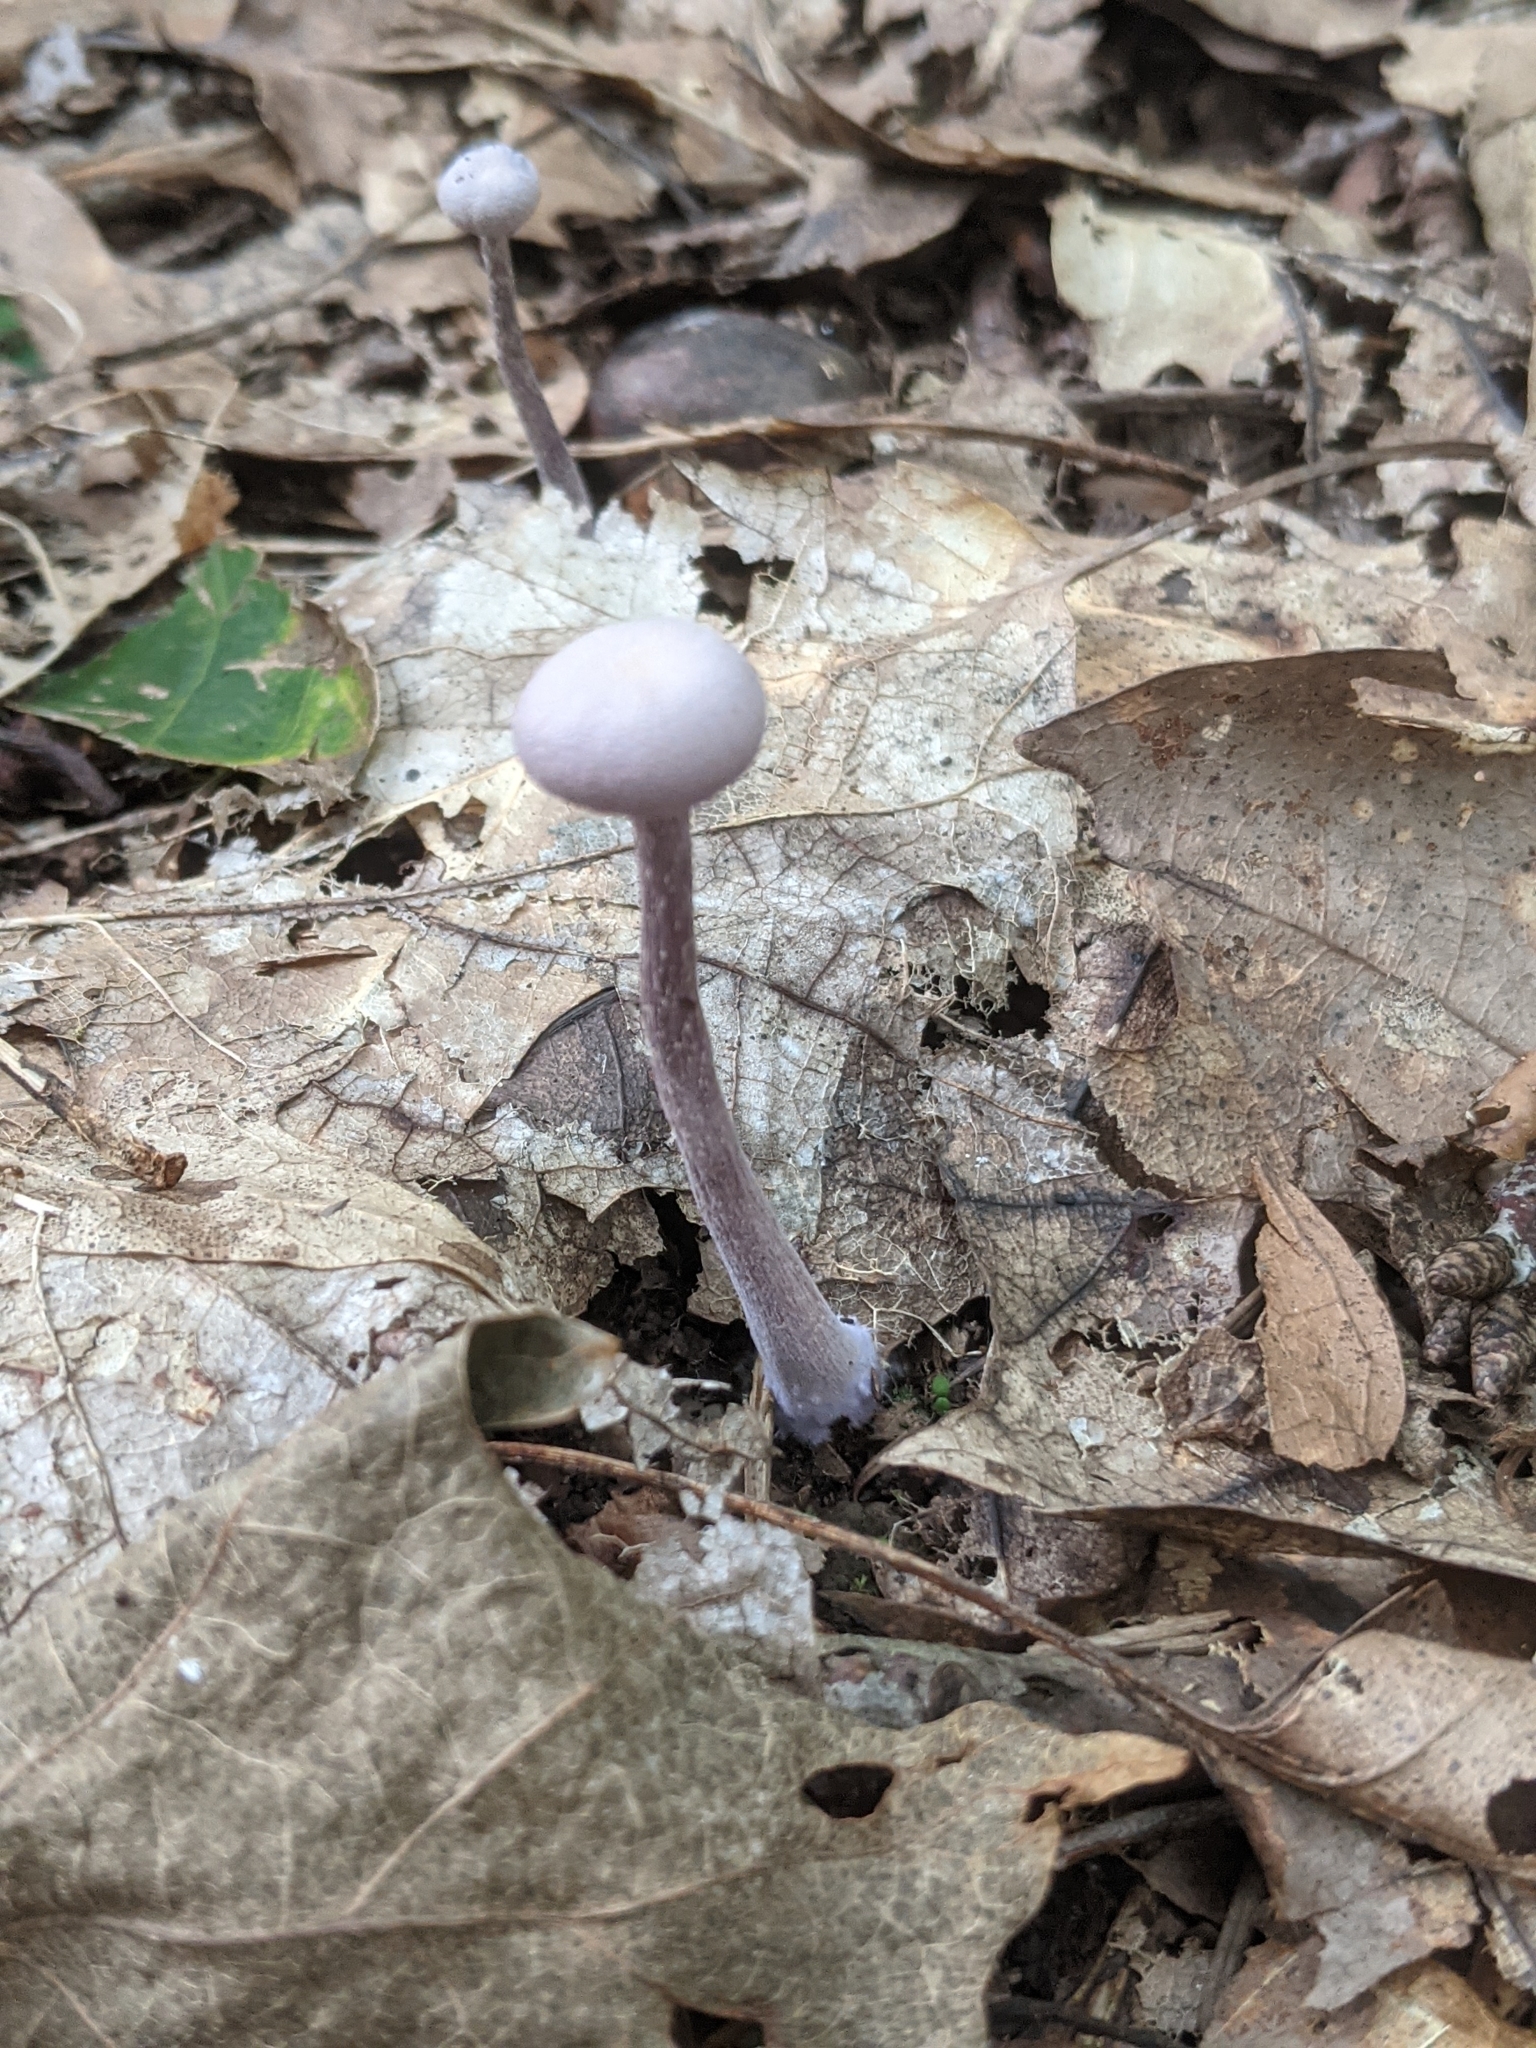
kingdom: Fungi
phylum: Basidiomycota
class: Agaricomycetes
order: Agaricales
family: Hydnangiaceae
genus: Laccaria
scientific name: Laccaria amethystina
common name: Amethyst deceiver
